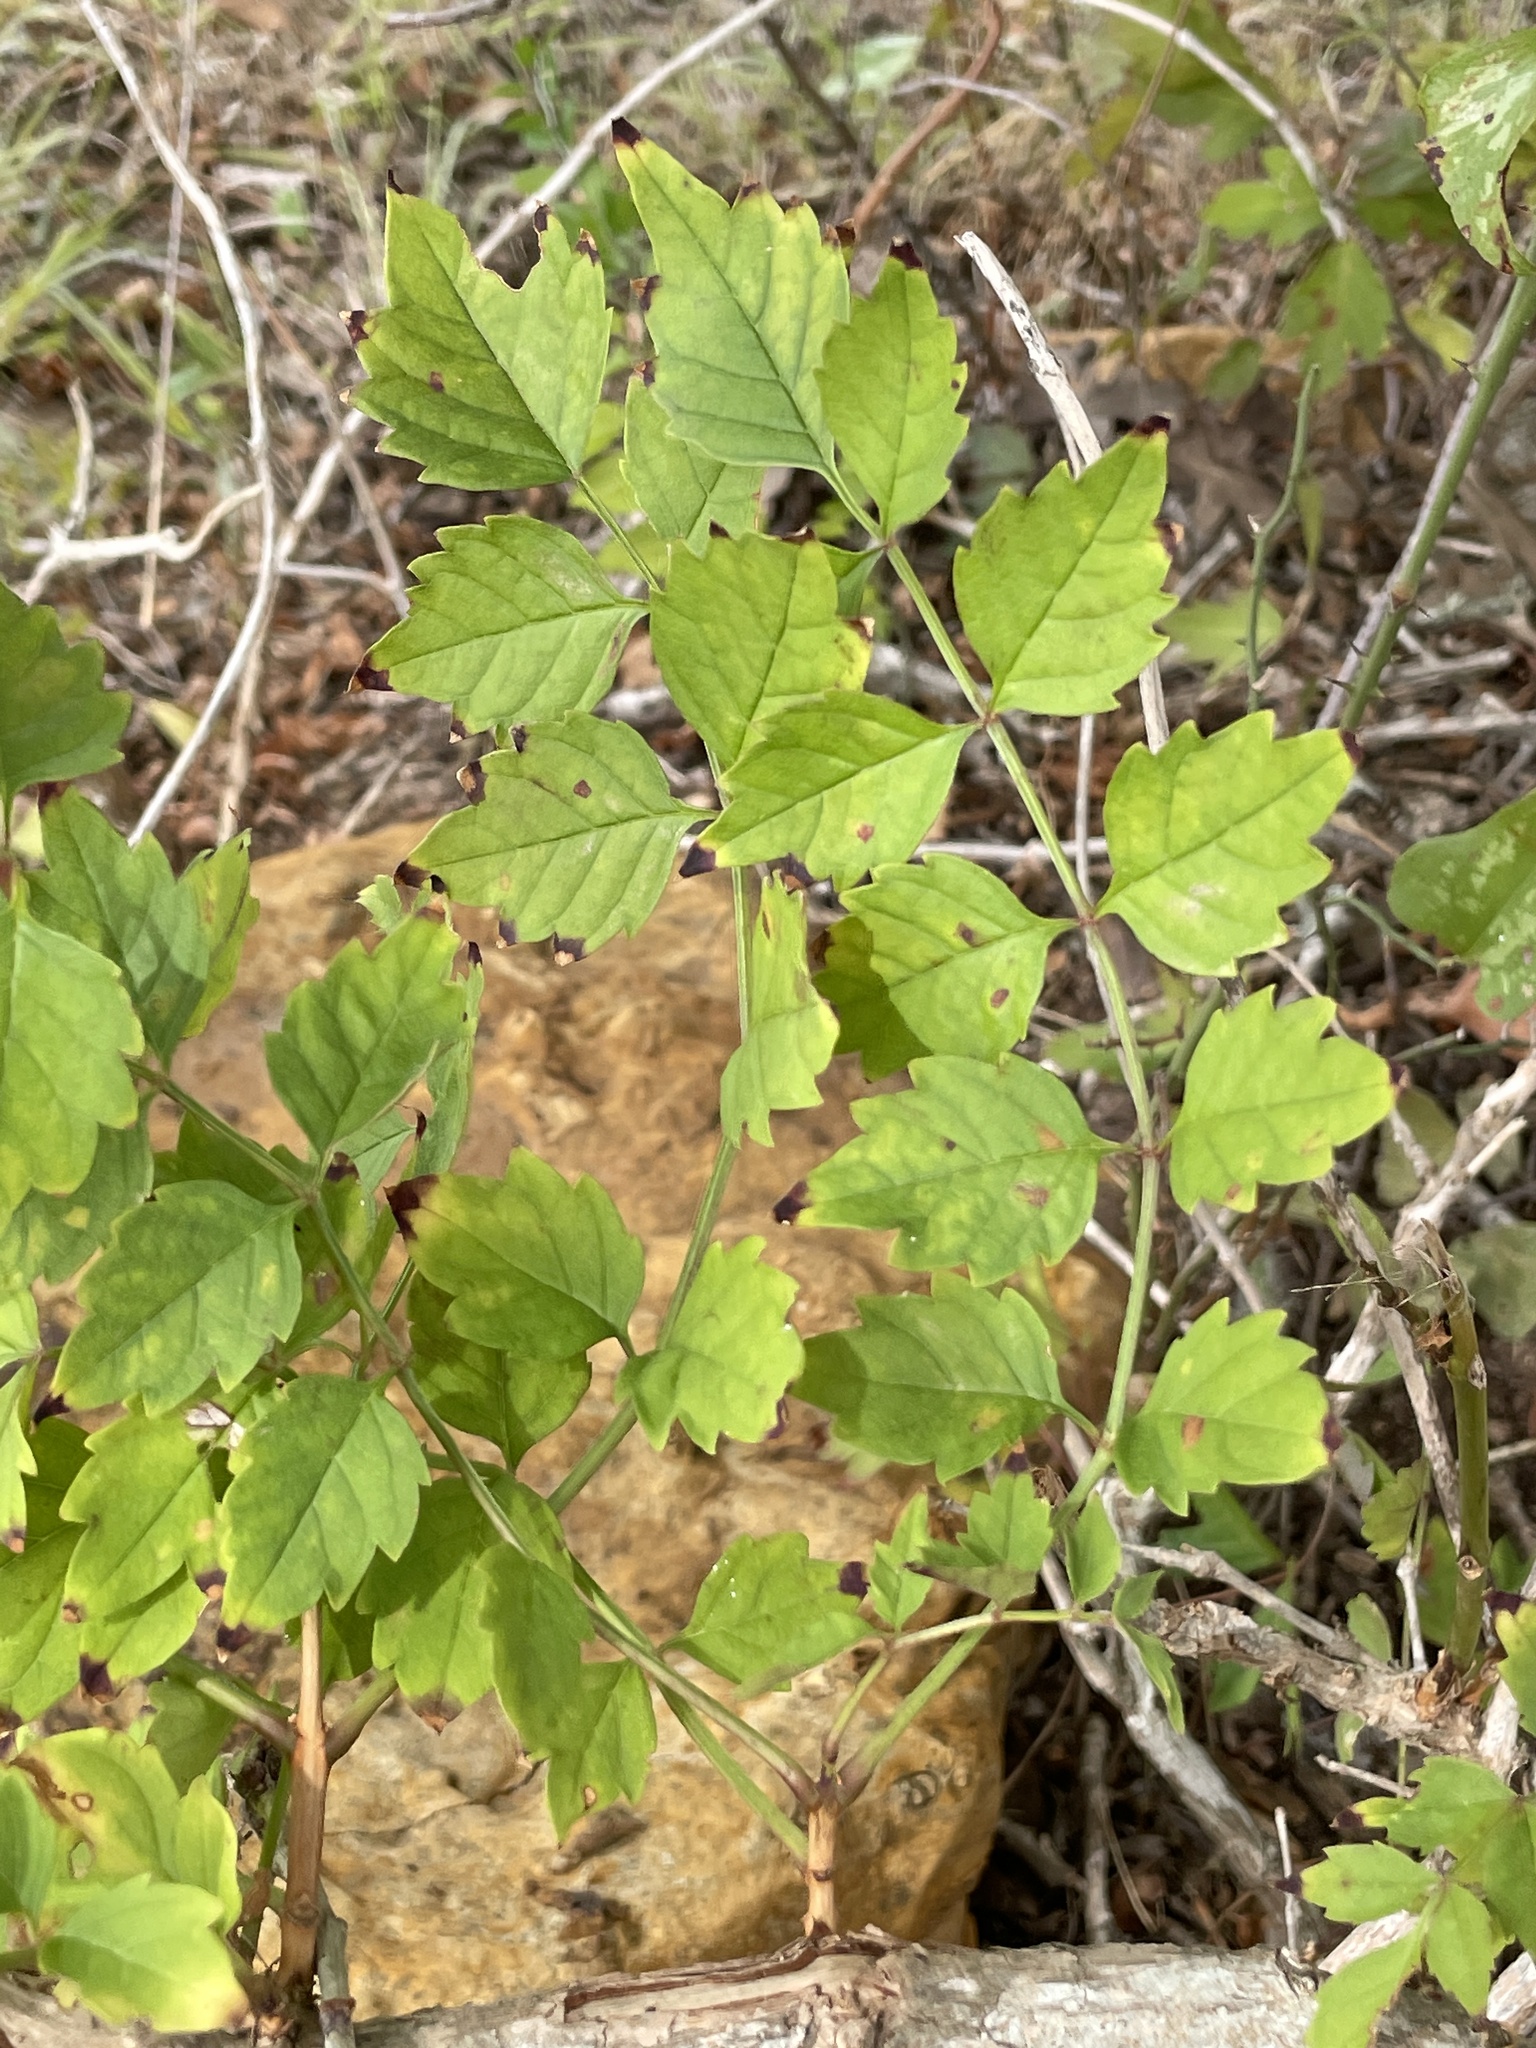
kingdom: Plantae
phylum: Tracheophyta
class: Magnoliopsida
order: Lamiales
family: Bignoniaceae
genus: Campsis
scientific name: Campsis radicans
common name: Trumpet-creeper
